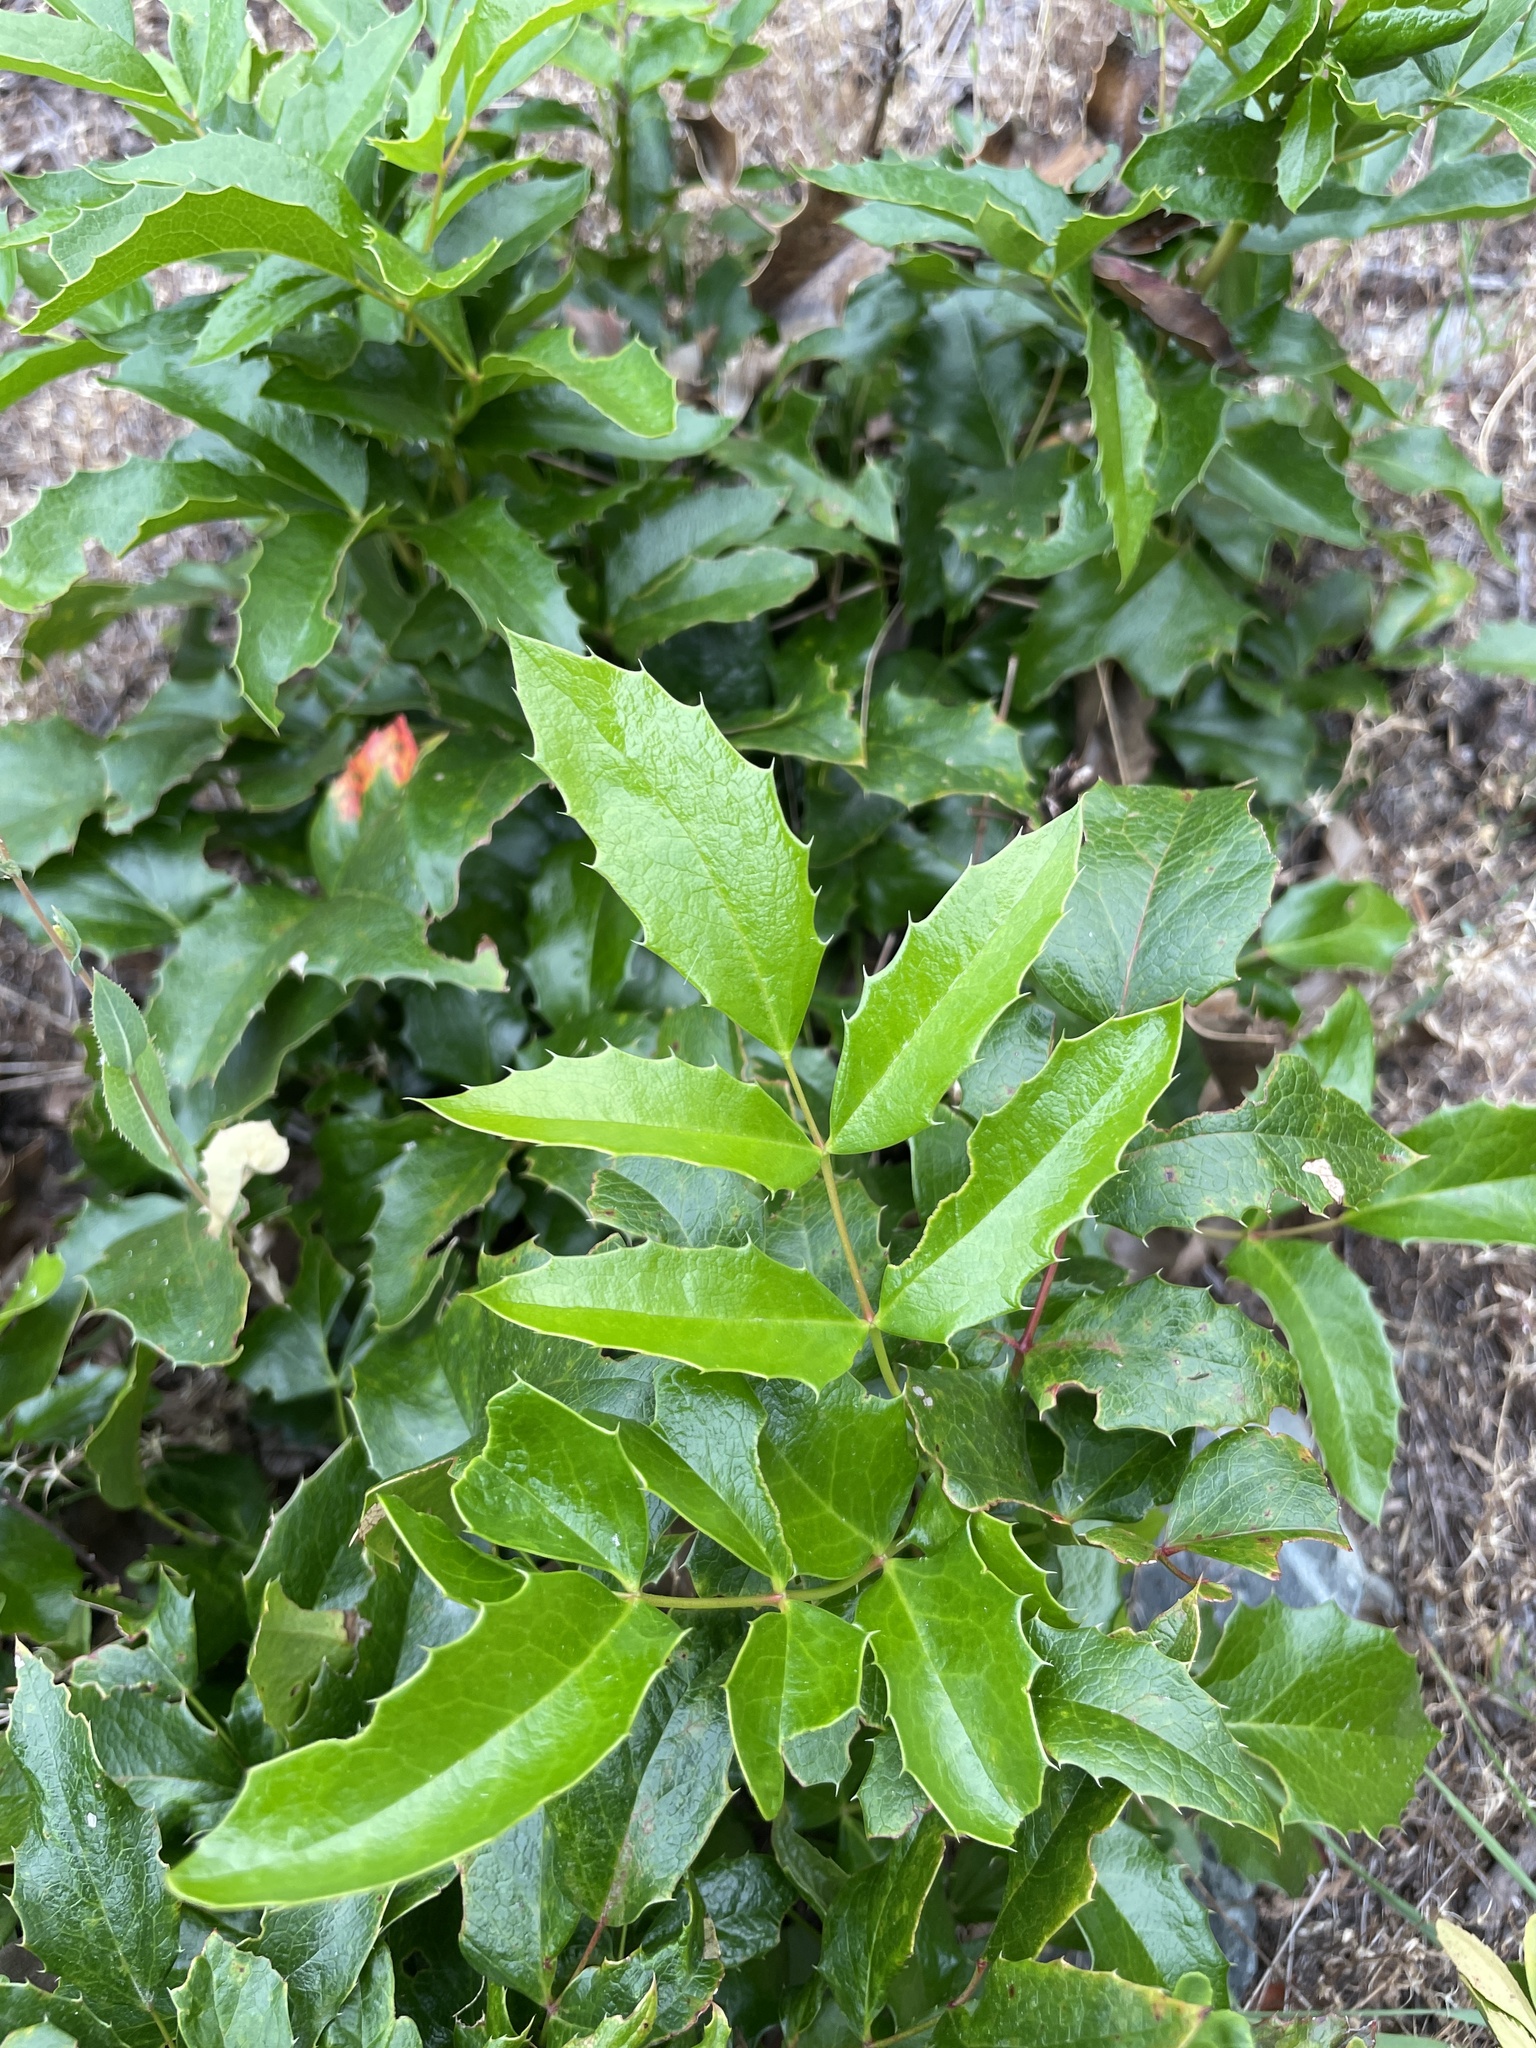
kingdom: Plantae
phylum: Tracheophyta
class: Magnoliopsida
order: Ranunculales
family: Berberidaceae
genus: Mahonia
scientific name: Mahonia aquifolium
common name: Oregon-grape
